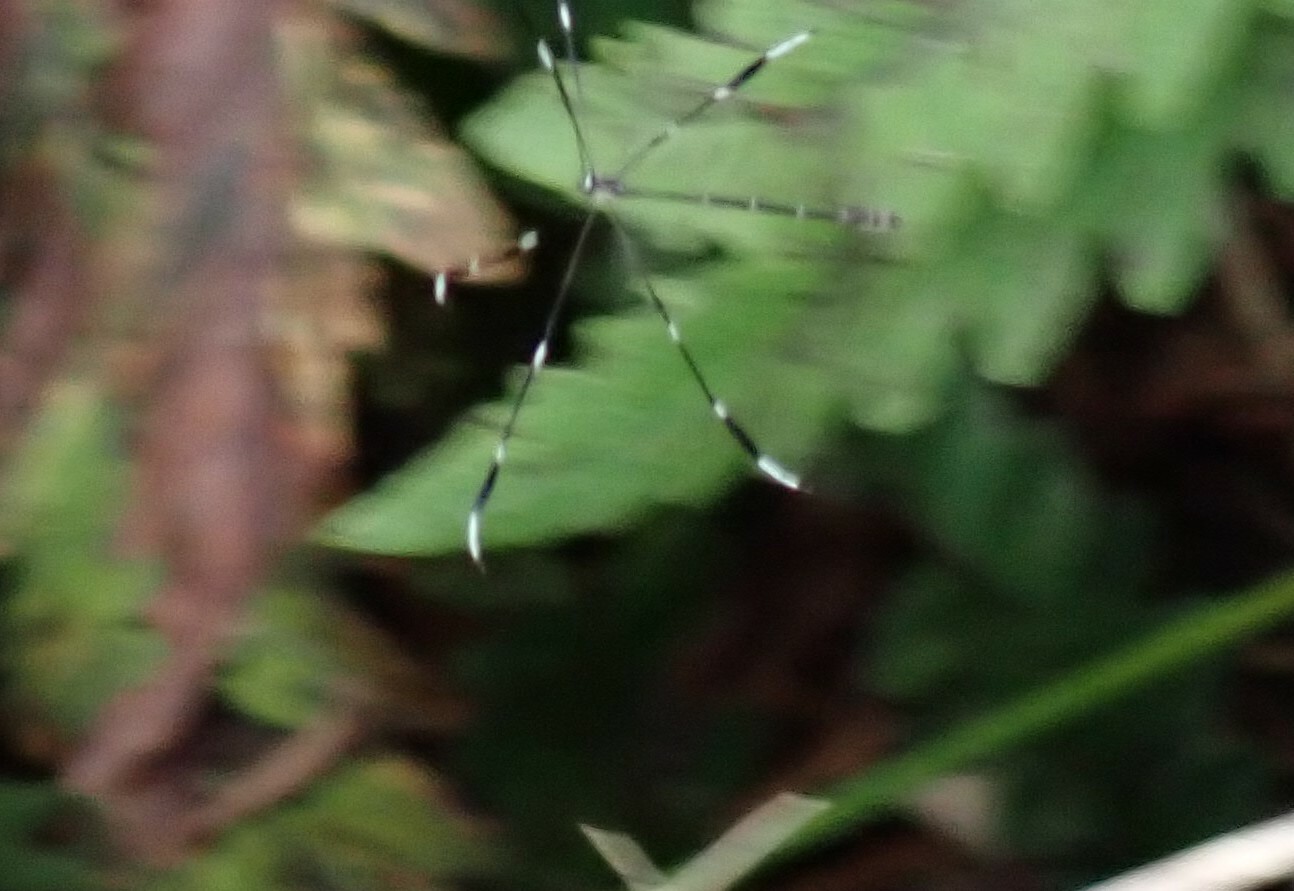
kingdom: Animalia
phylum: Arthropoda
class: Insecta
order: Diptera
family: Ptychopteridae
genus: Bittacomorpha
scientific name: Bittacomorpha clavipes
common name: Eastern phantom crane fly
